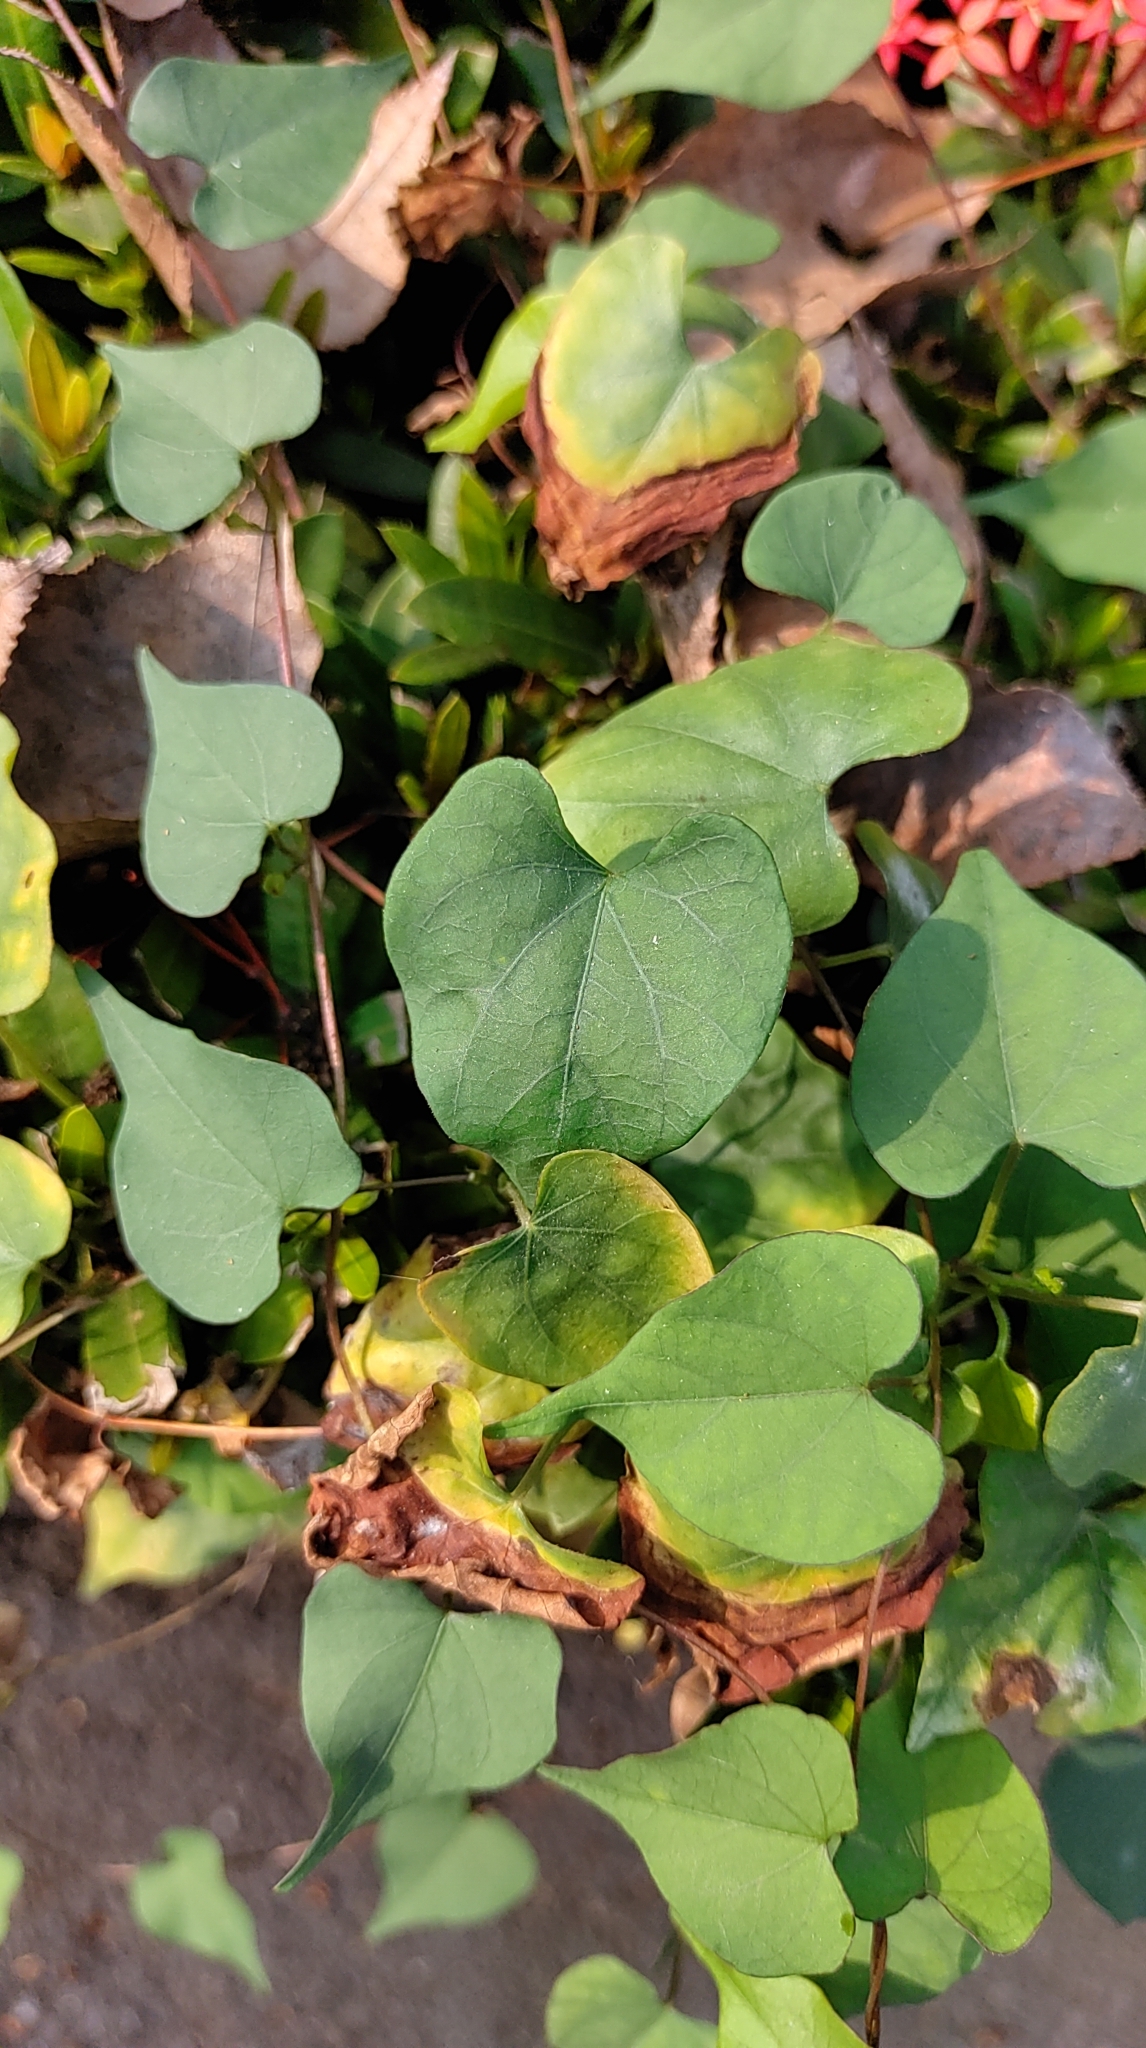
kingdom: Plantae
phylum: Tracheophyta
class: Magnoliopsida
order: Solanales
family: Convolvulaceae
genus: Ipomoea
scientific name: Ipomoea obscura
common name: Obscure morning-glory
